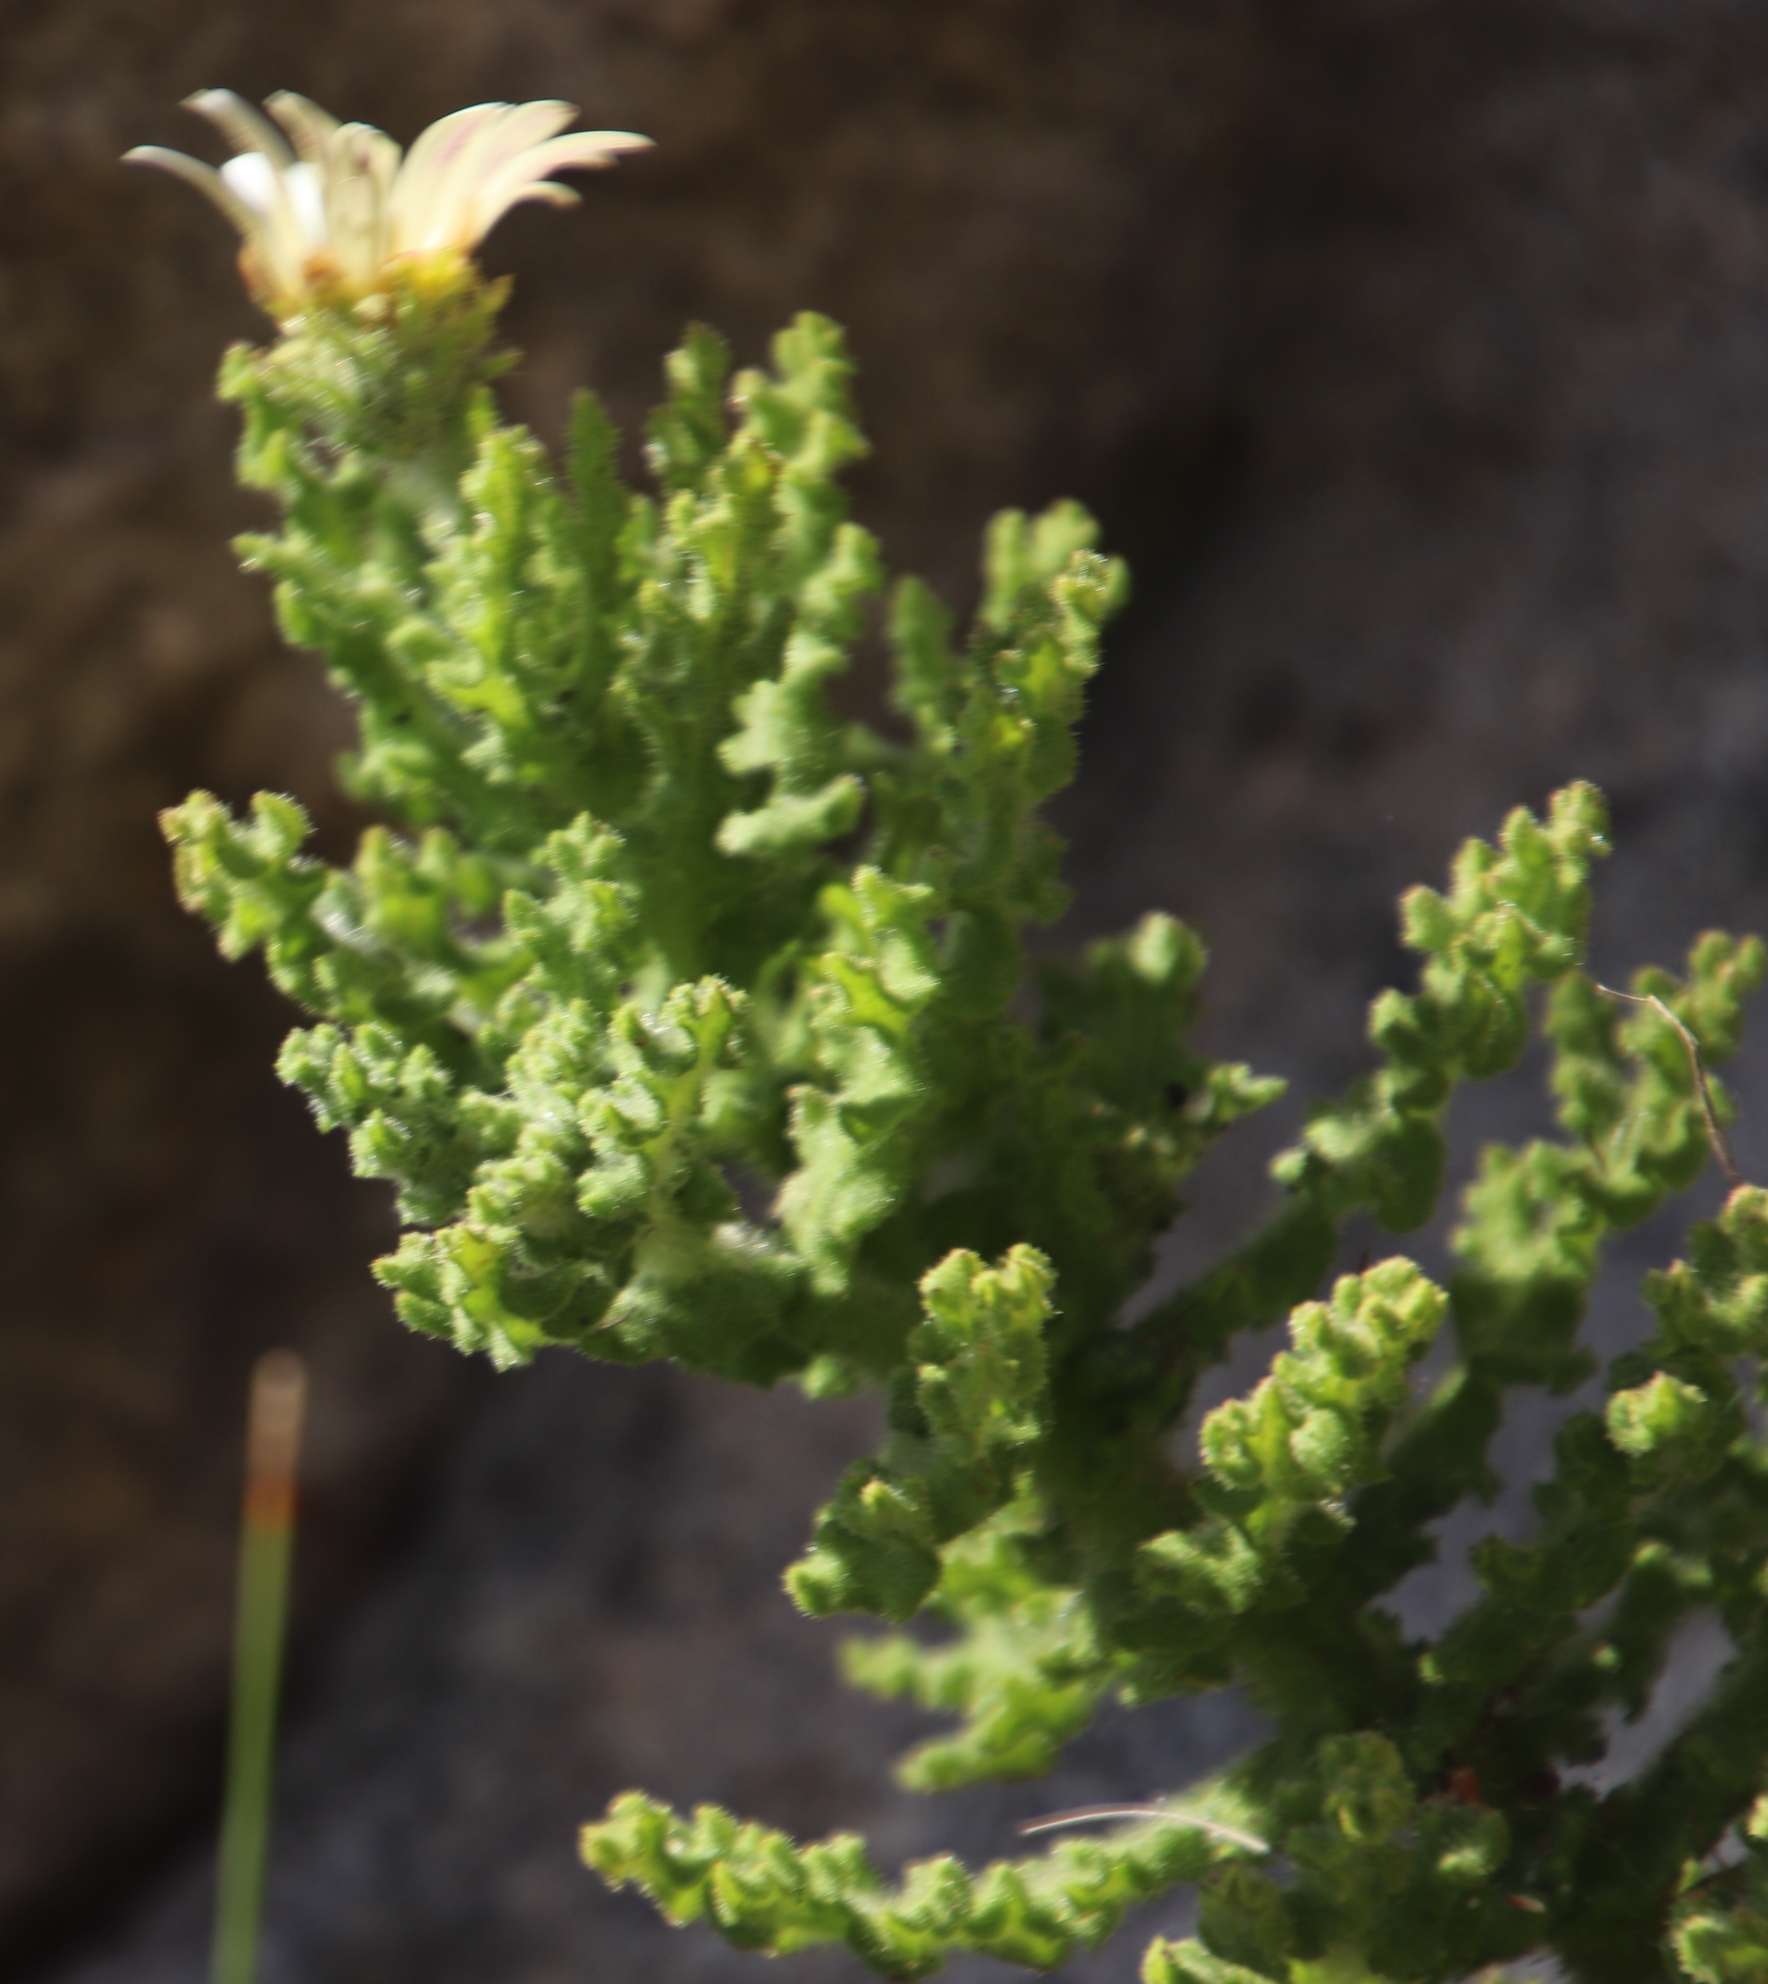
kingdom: Plantae
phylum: Tracheophyta
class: Magnoliopsida
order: Asterales
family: Asteraceae
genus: Arctotis
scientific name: Arctotis aspera
